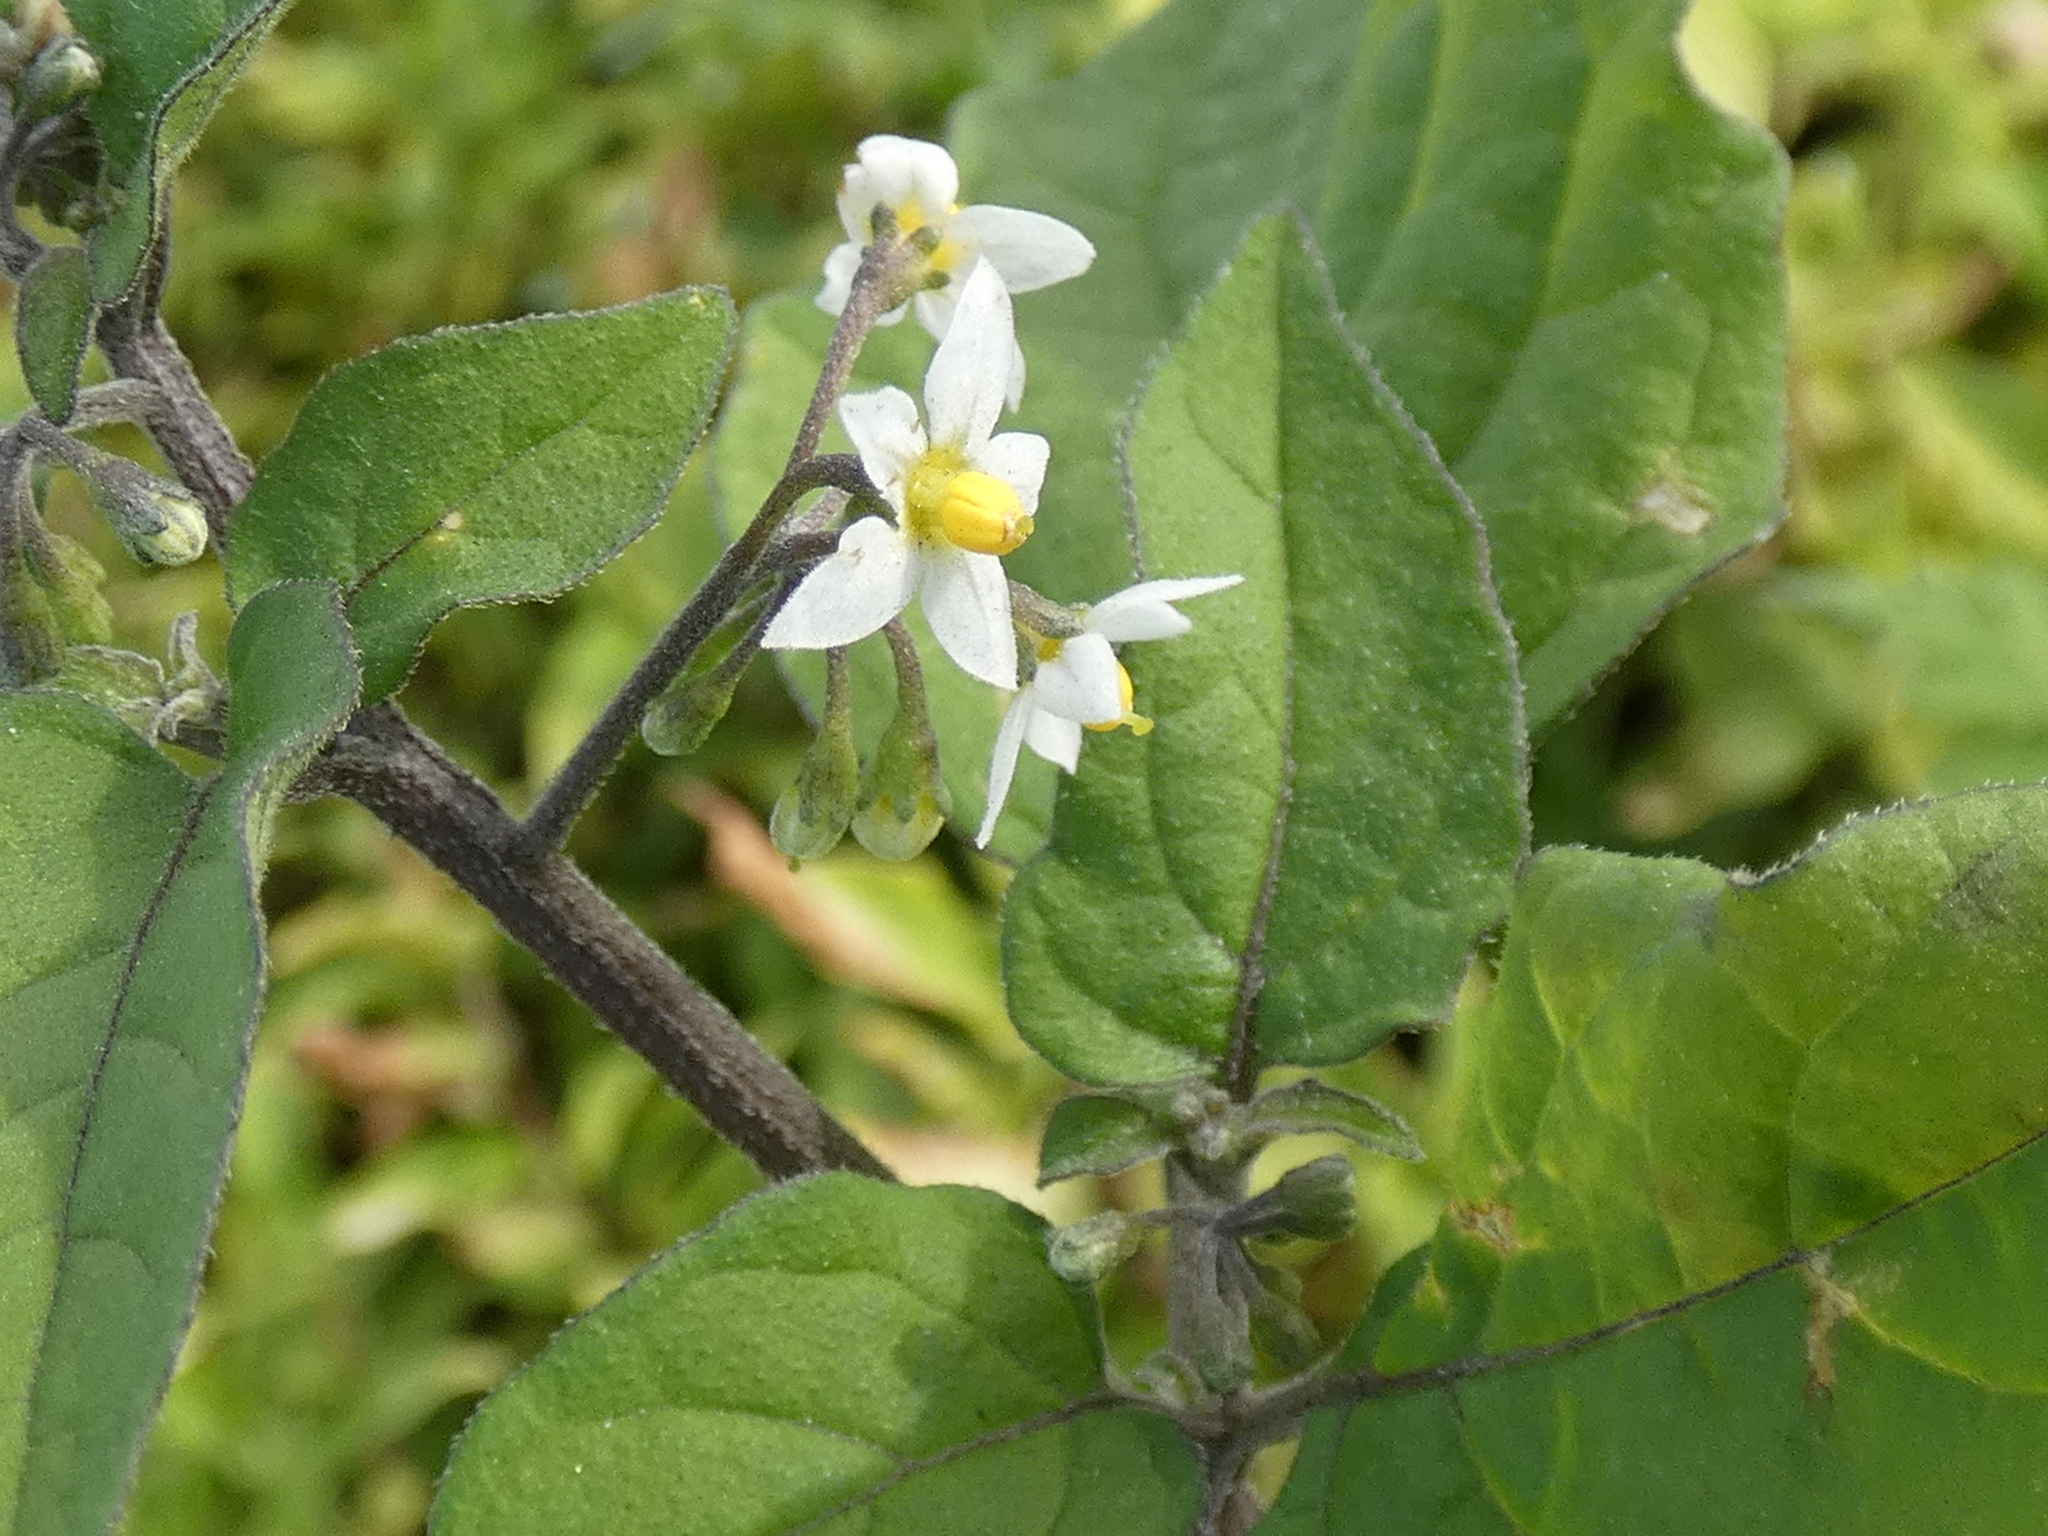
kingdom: Plantae
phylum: Tracheophyta
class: Magnoliopsida
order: Solanales
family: Solanaceae
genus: Solanum
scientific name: Solanum americanum
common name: American black nightshade
